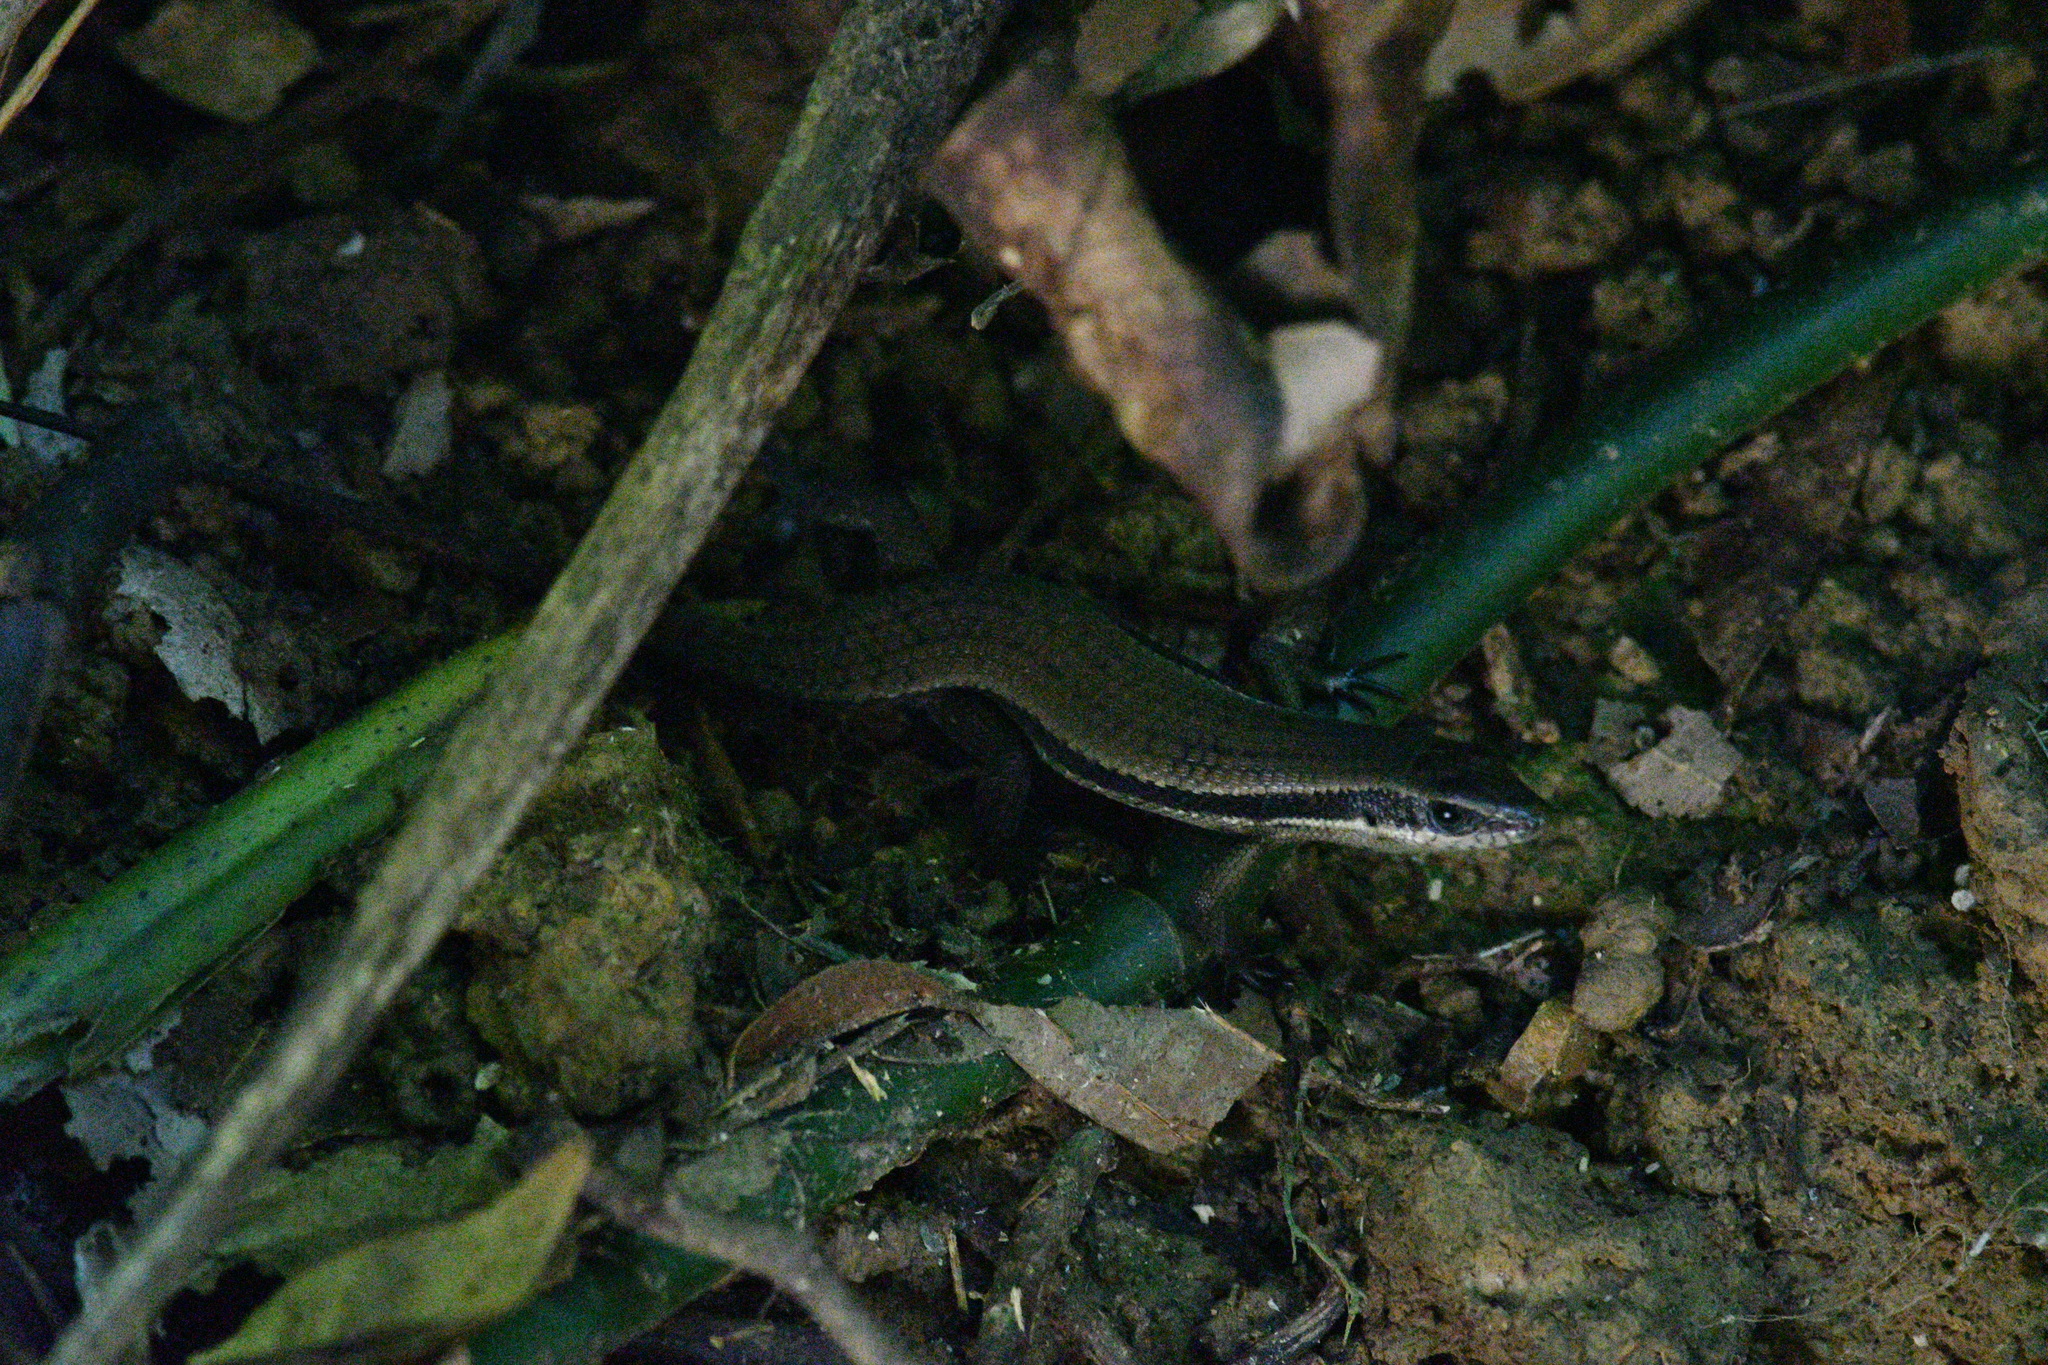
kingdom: Animalia
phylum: Chordata
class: Squamata
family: Scincidae
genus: Eutropis
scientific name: Eutropis rudis
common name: Rough mabuya
